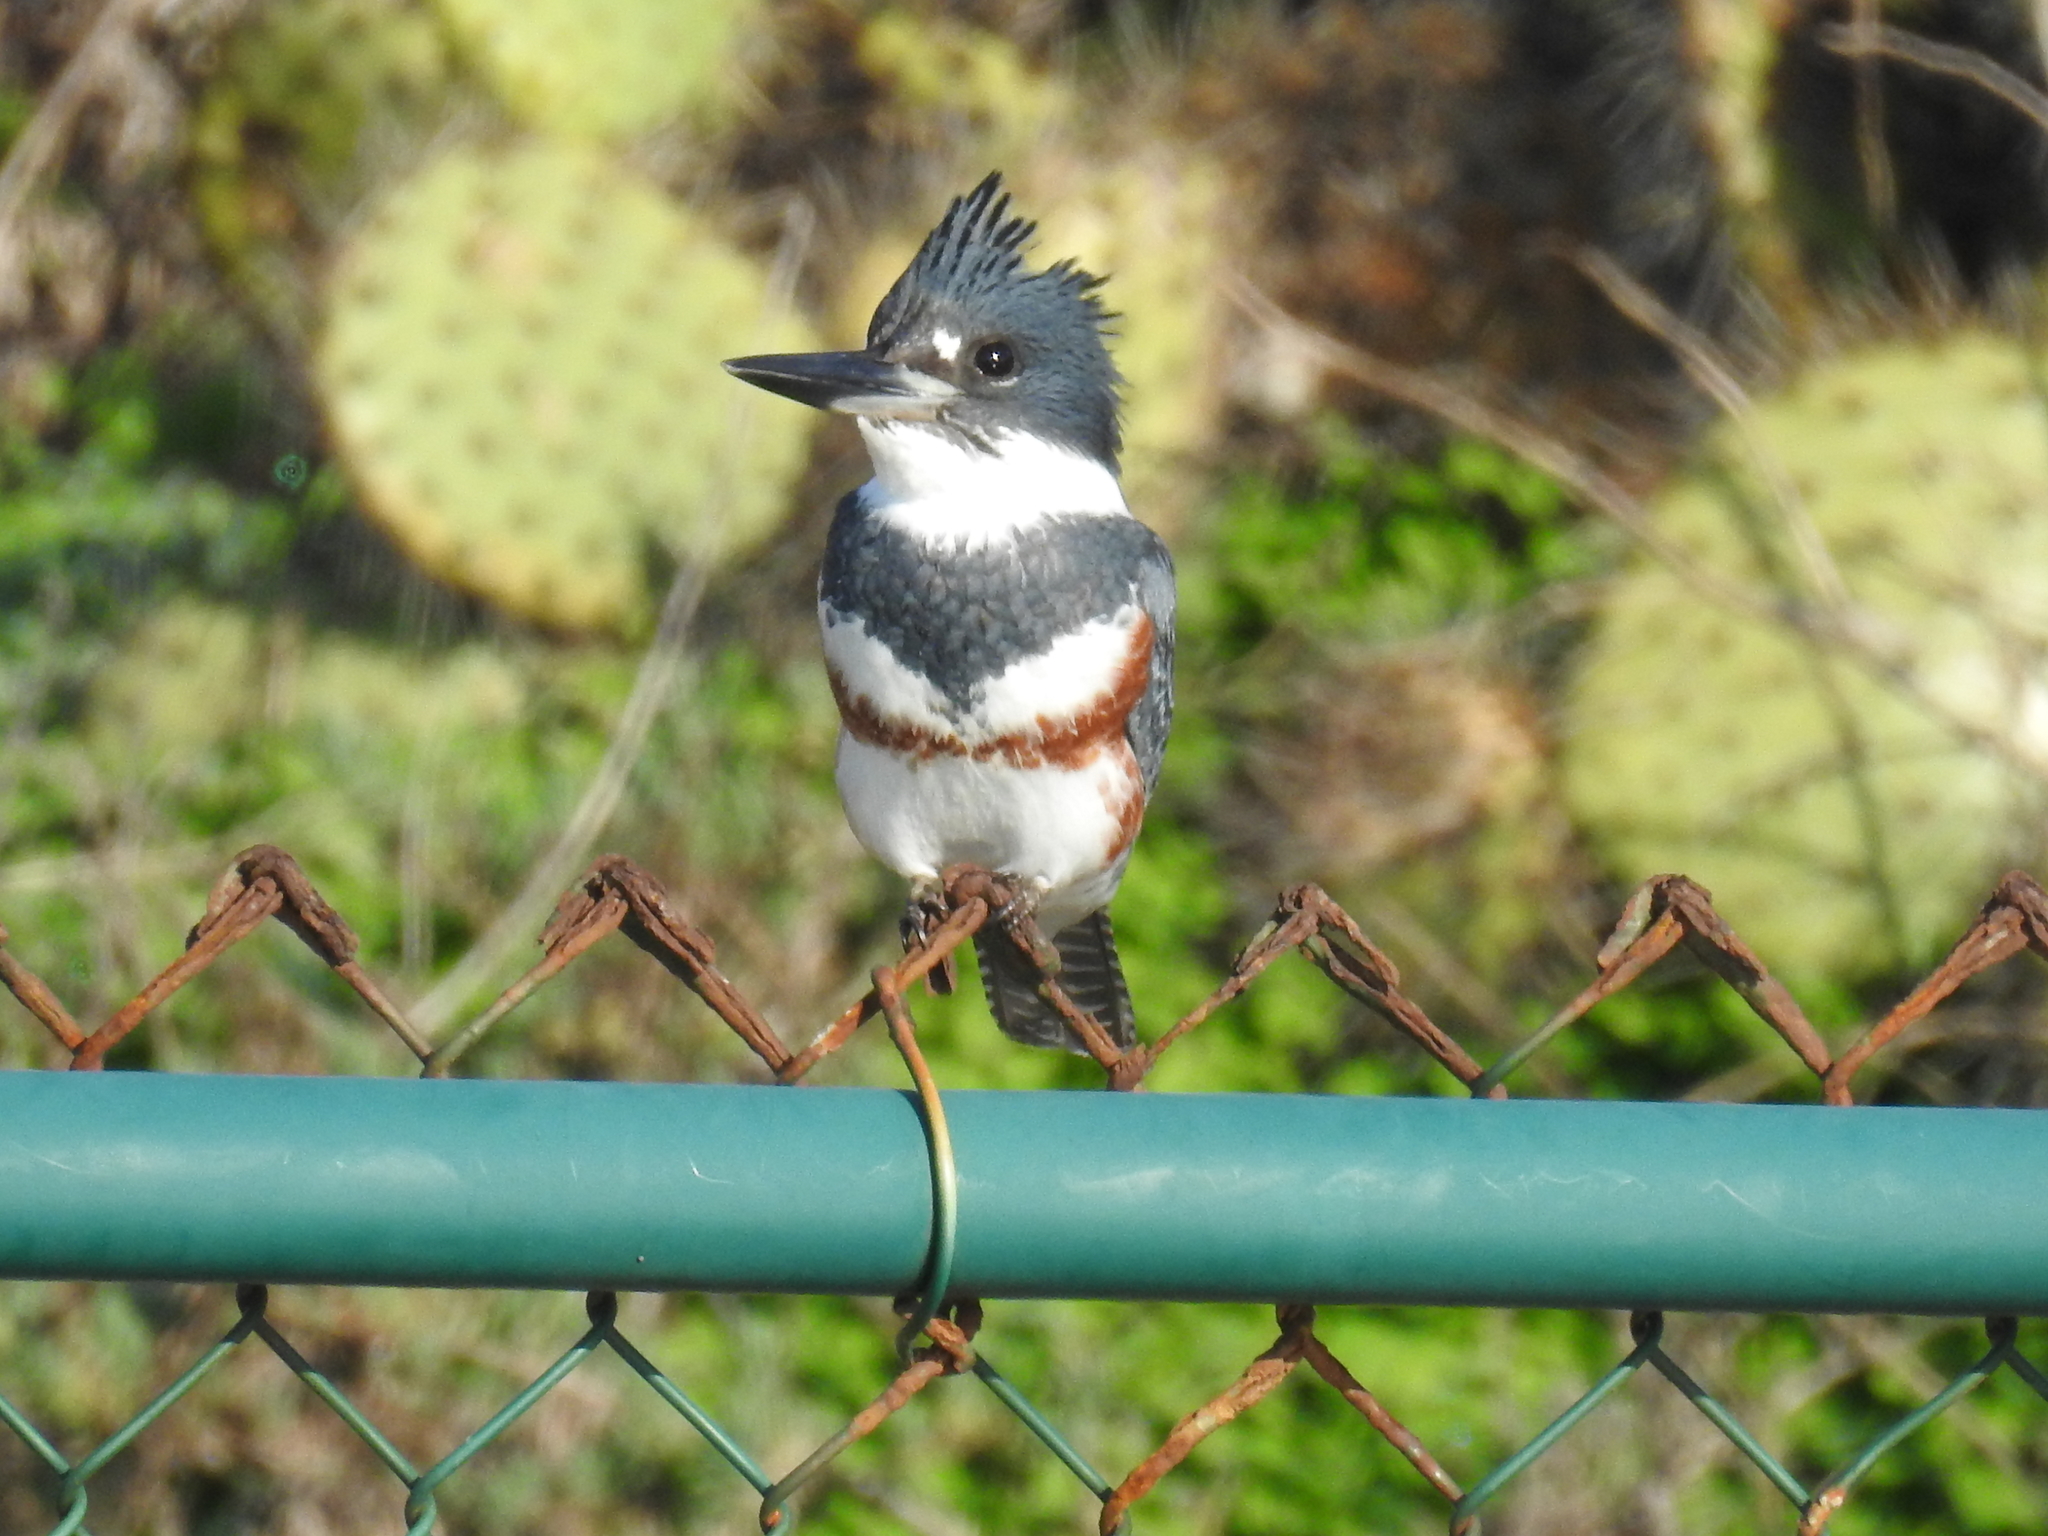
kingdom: Animalia
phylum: Chordata
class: Aves
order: Coraciiformes
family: Alcedinidae
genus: Megaceryle
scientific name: Megaceryle alcyon
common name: Belted kingfisher
